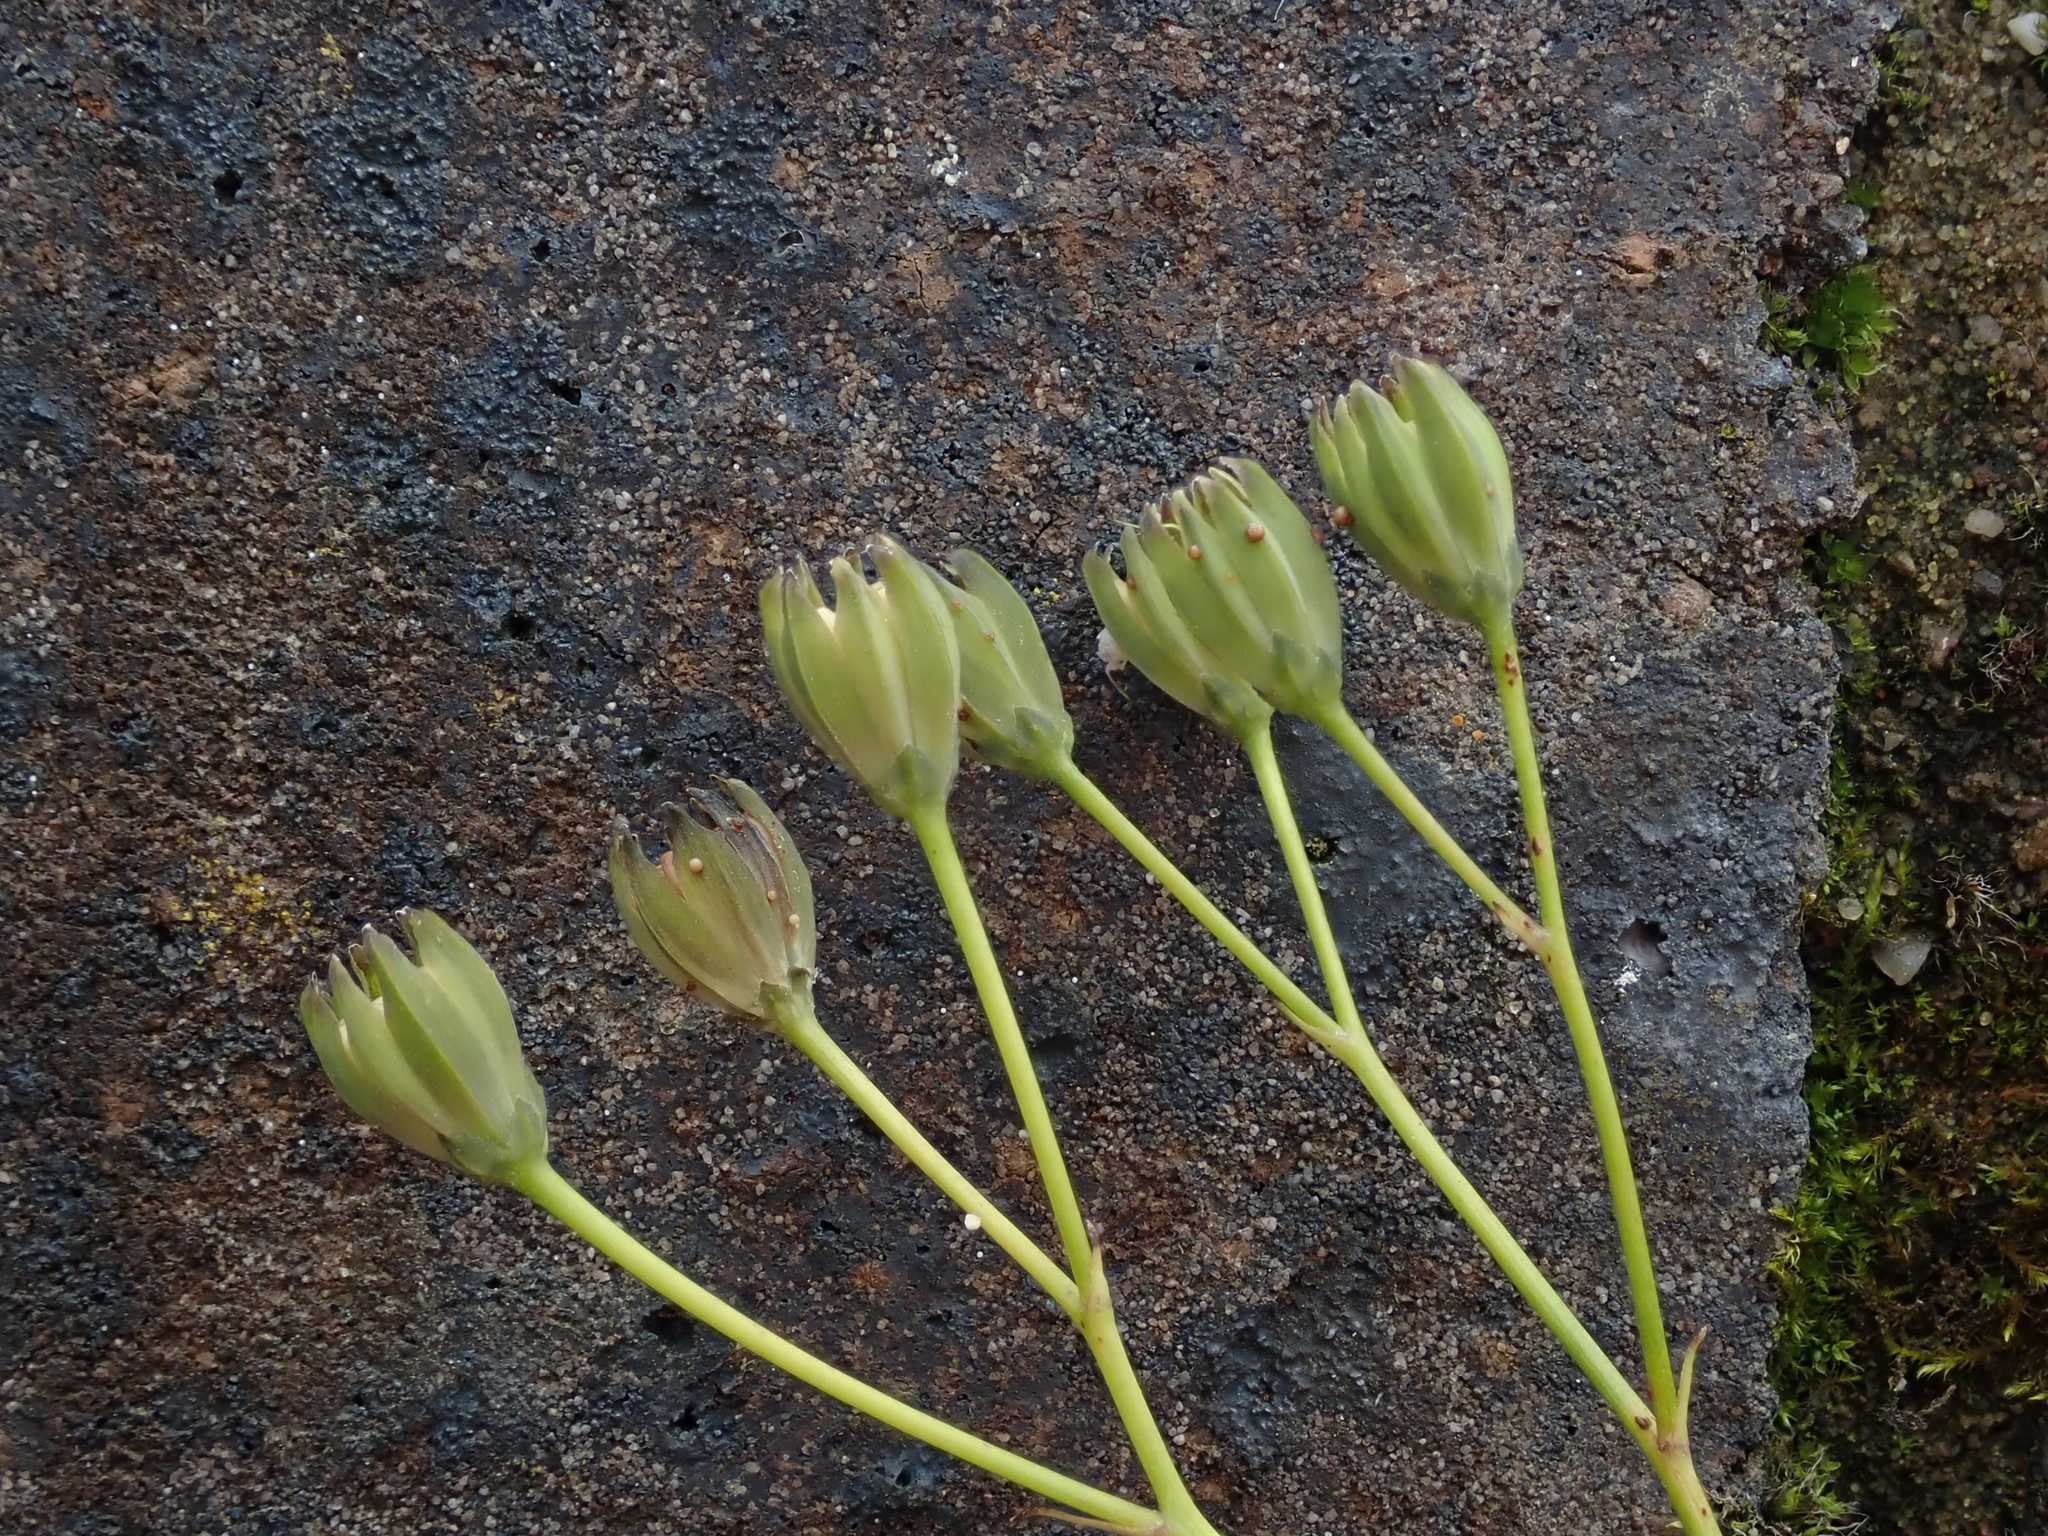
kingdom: Plantae
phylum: Tracheophyta
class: Magnoliopsida
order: Asterales
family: Asteraceae
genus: Lapsana
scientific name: Lapsana communis
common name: Nipplewort
